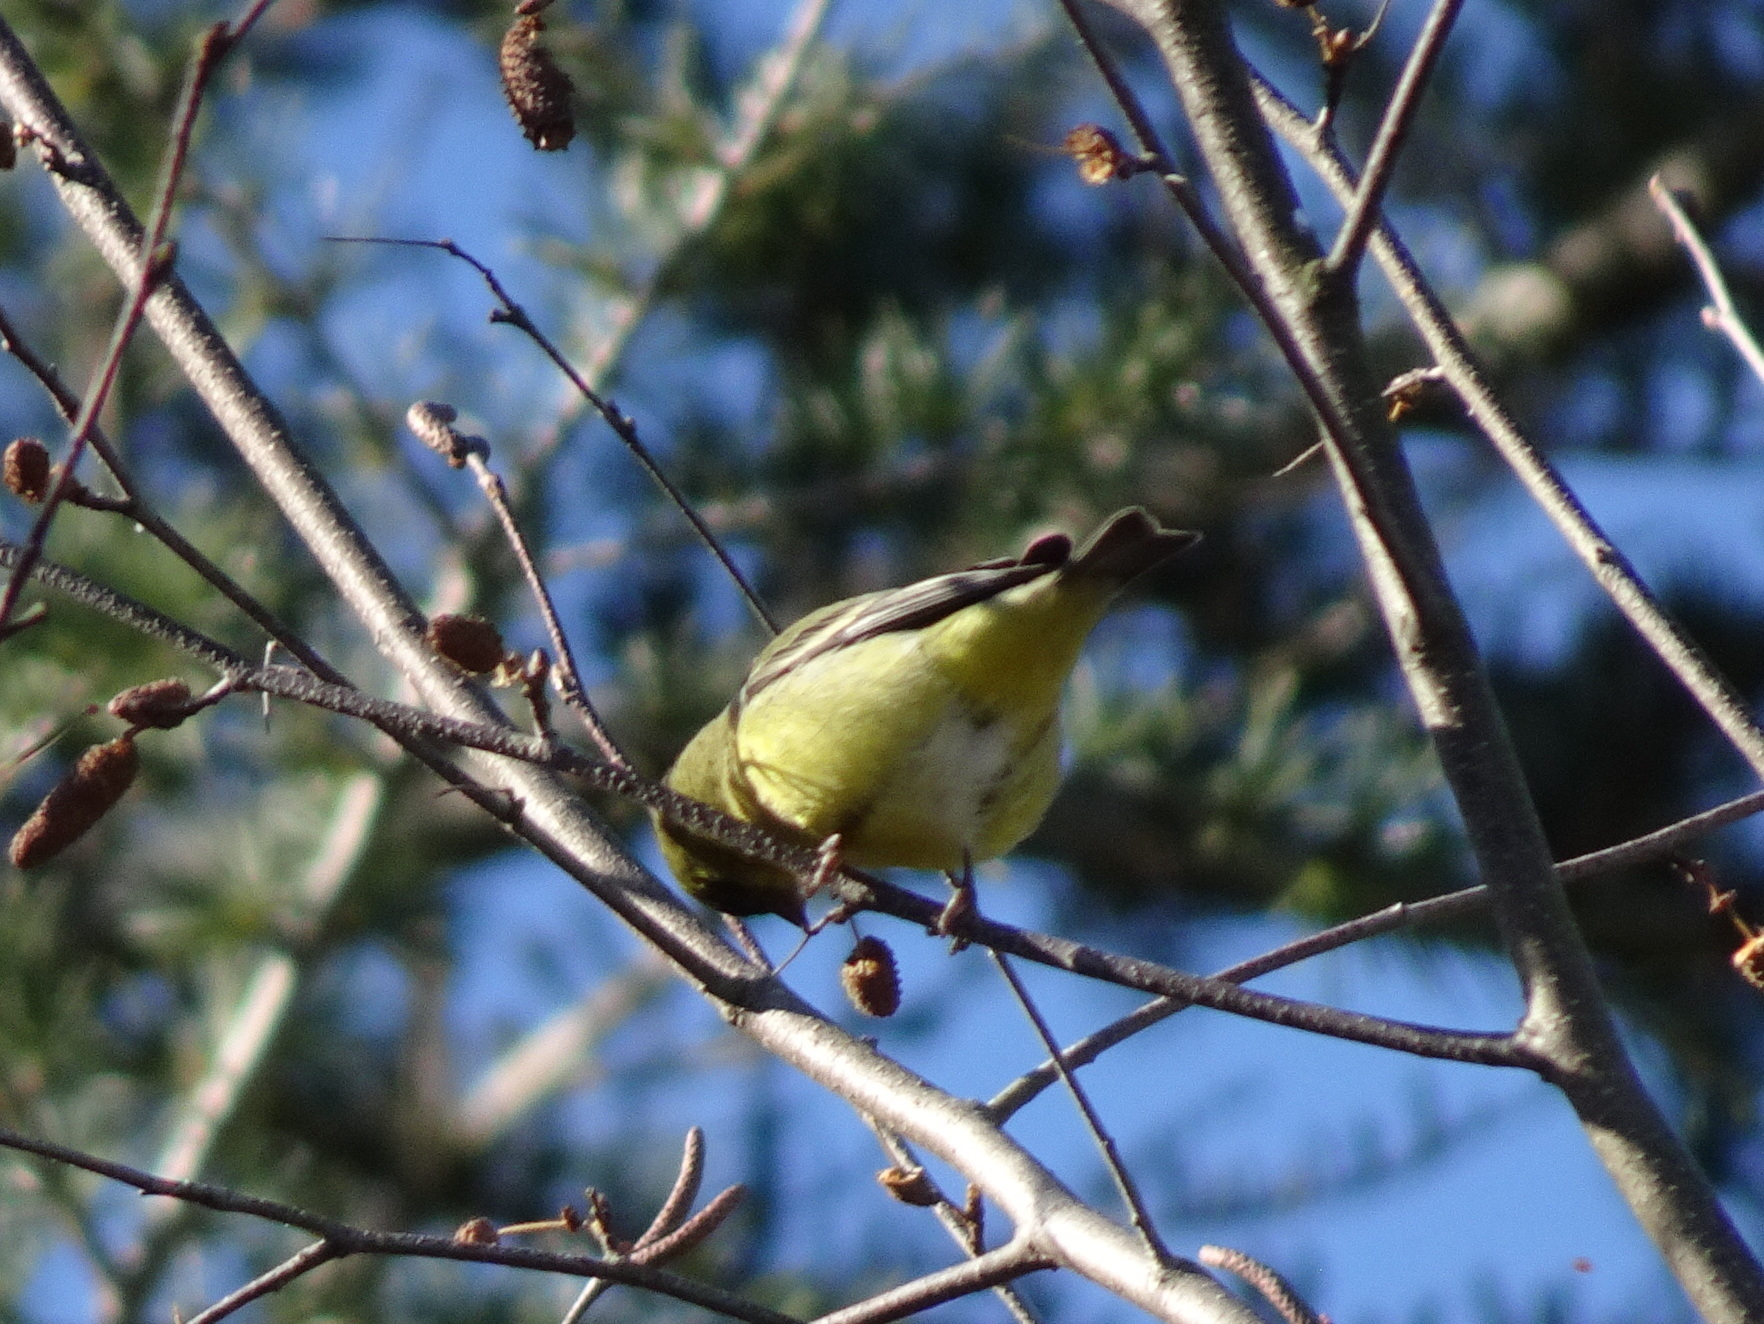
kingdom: Animalia
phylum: Chordata
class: Aves
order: Passeriformes
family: Fringillidae
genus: Spinus
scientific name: Spinus psaltria
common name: Lesser goldfinch
